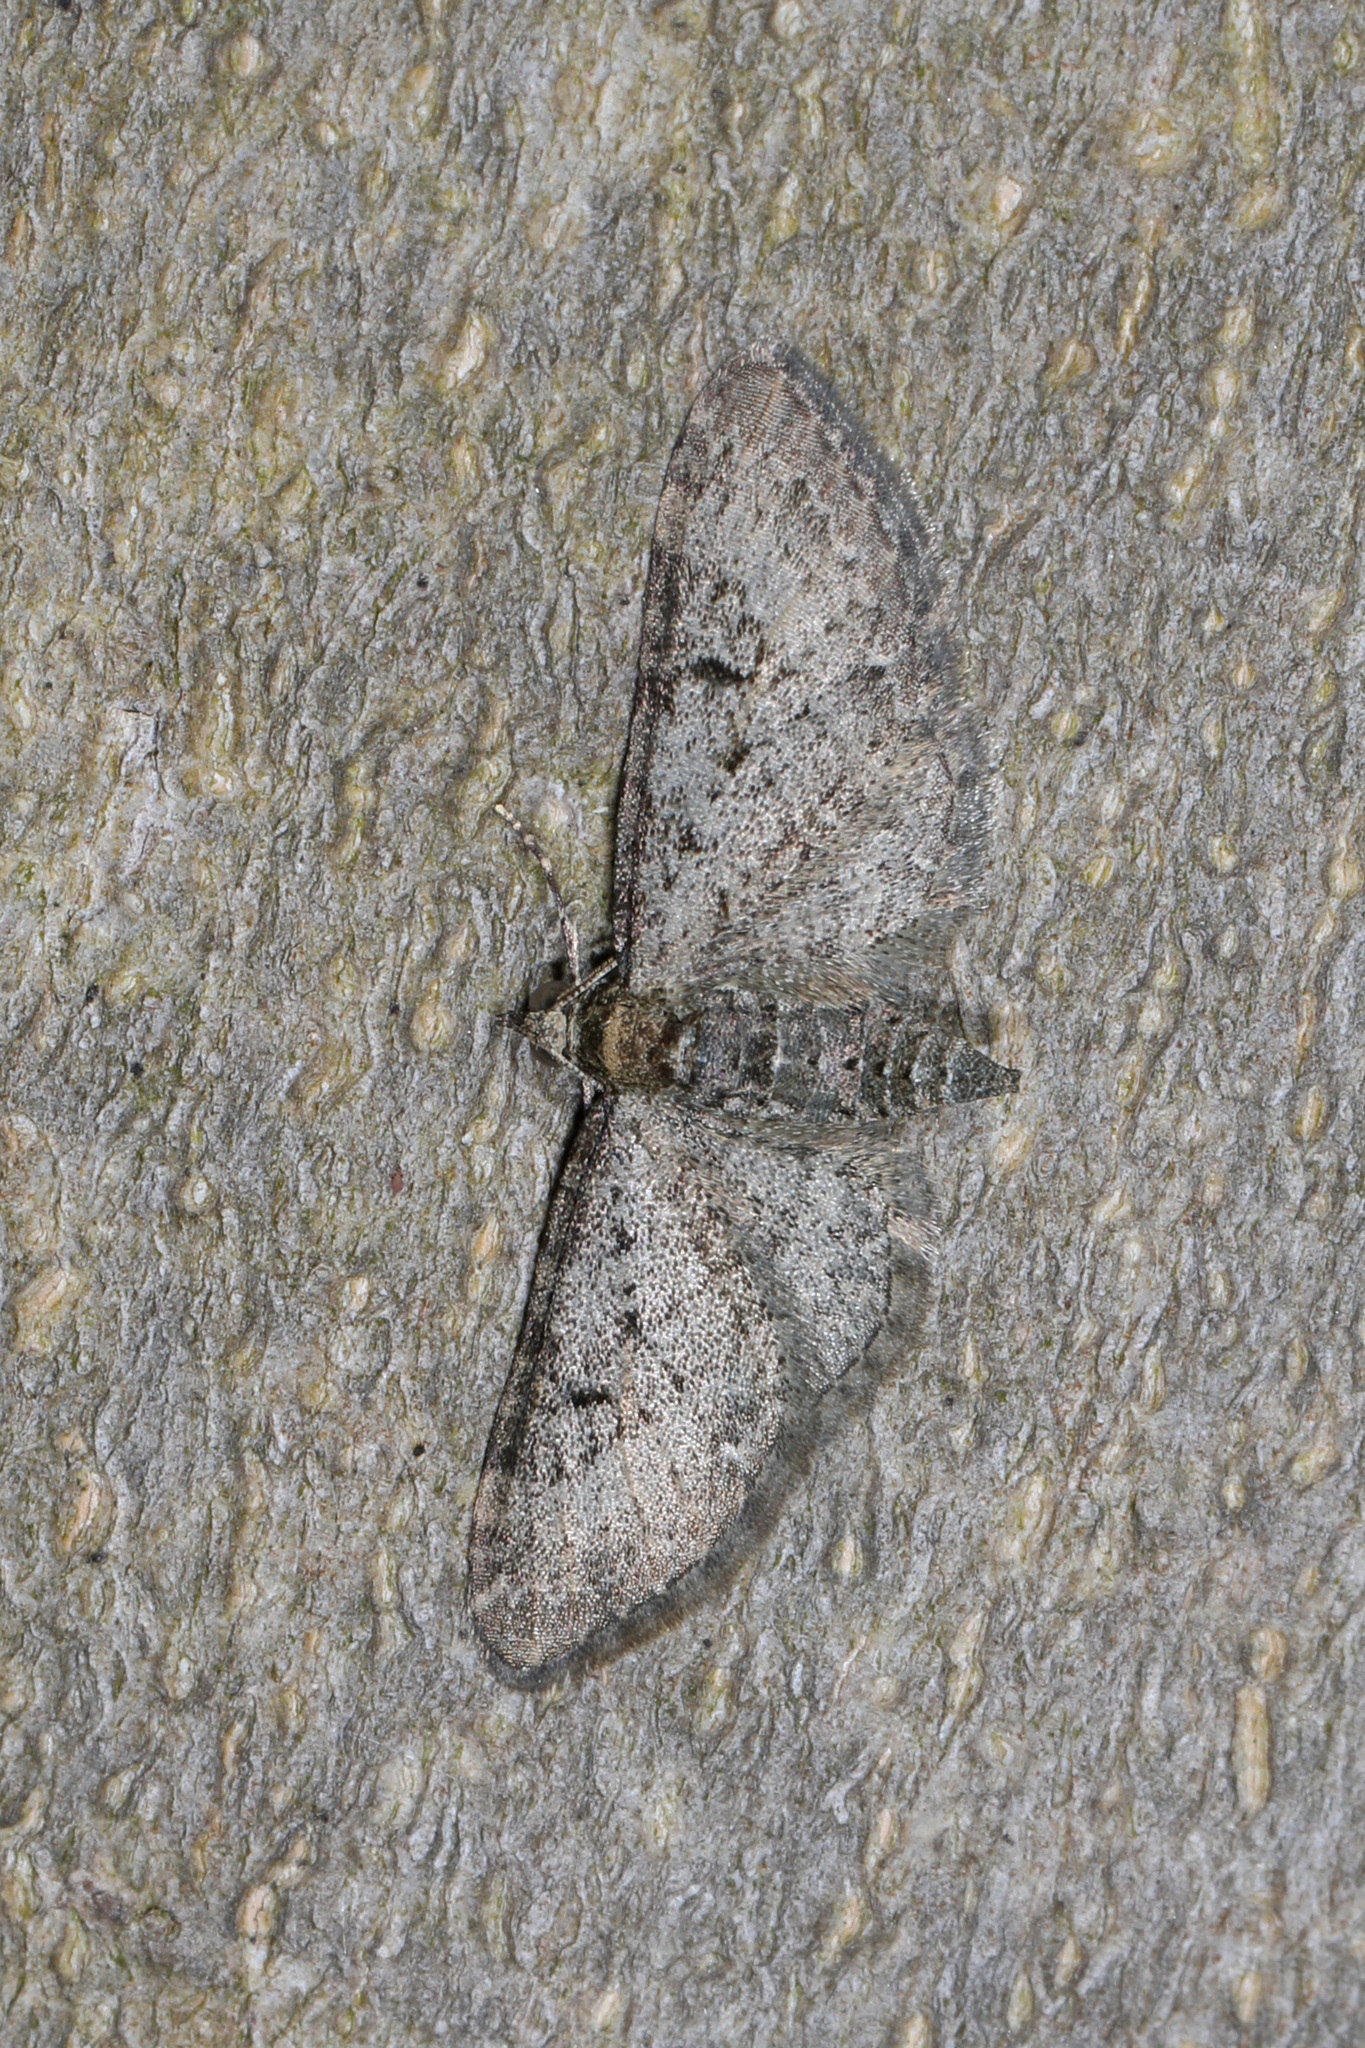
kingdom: Animalia
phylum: Arthropoda
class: Insecta
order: Lepidoptera
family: Geometridae
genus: Eupithecia
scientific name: Eupithecia
